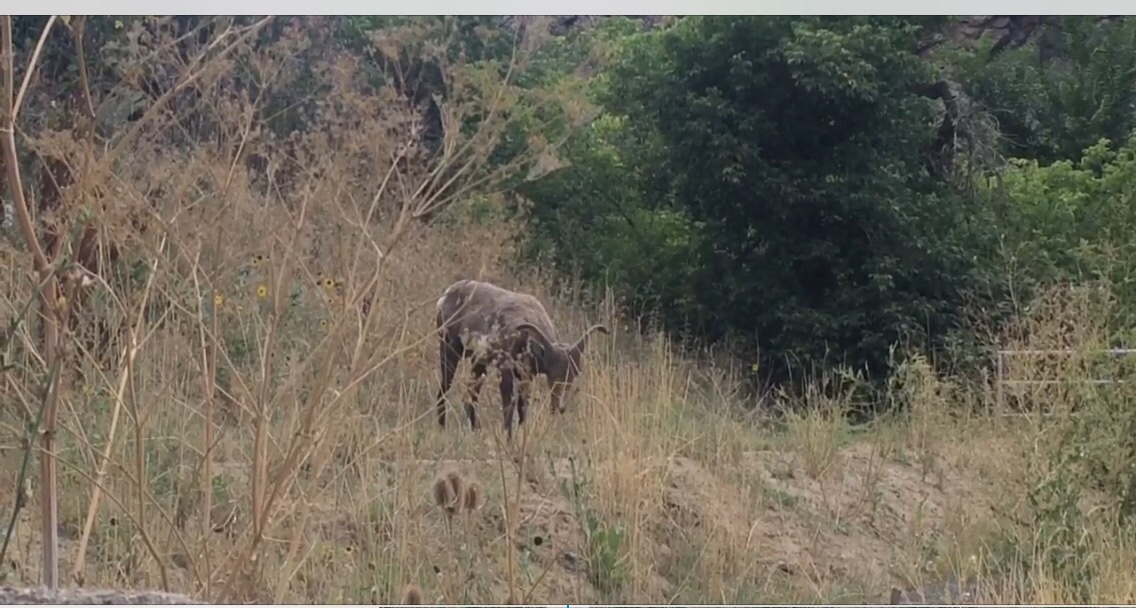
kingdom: Animalia
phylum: Chordata
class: Mammalia
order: Artiodactyla
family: Bovidae
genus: Ovis
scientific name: Ovis canadensis
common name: Bighorn sheep
